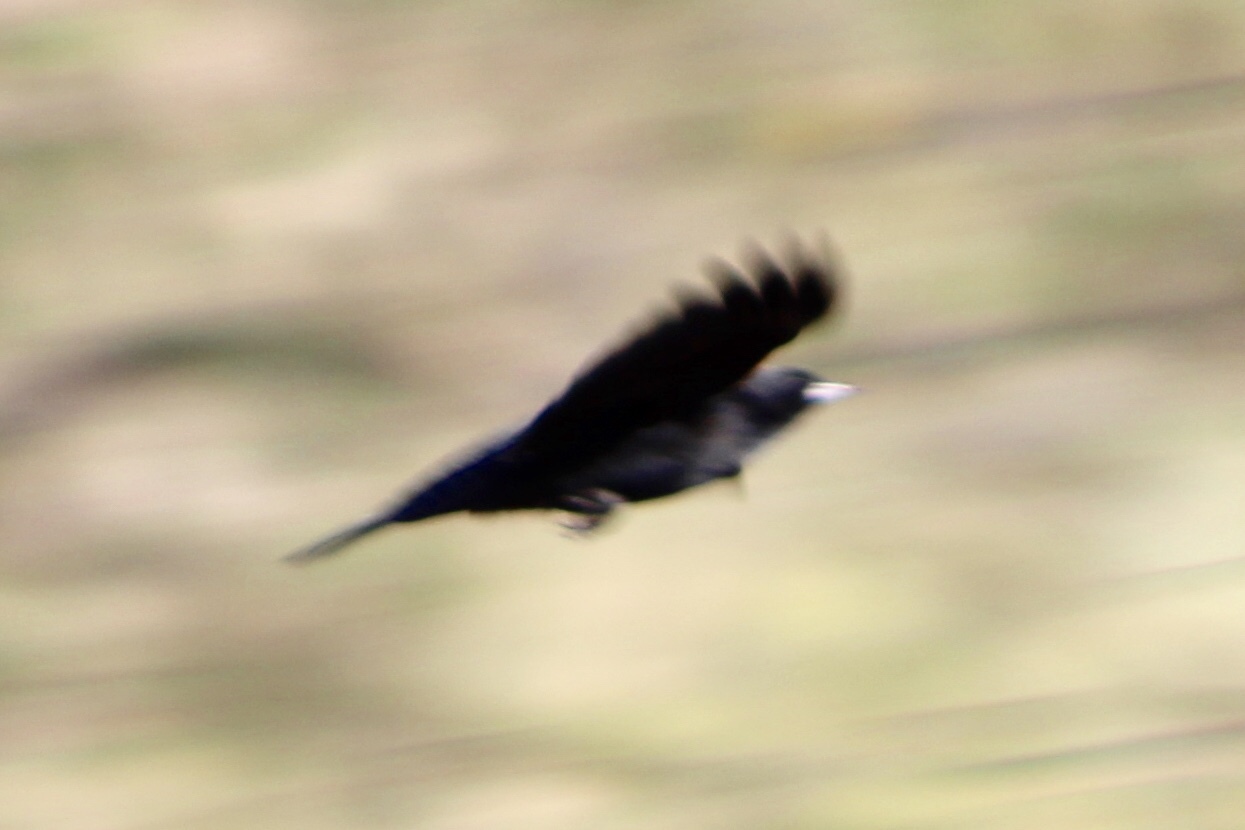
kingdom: Animalia
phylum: Chordata
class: Aves
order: Passeriformes
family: Icteridae
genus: Agelaius
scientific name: Agelaius phoeniceus
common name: Red-winged blackbird
